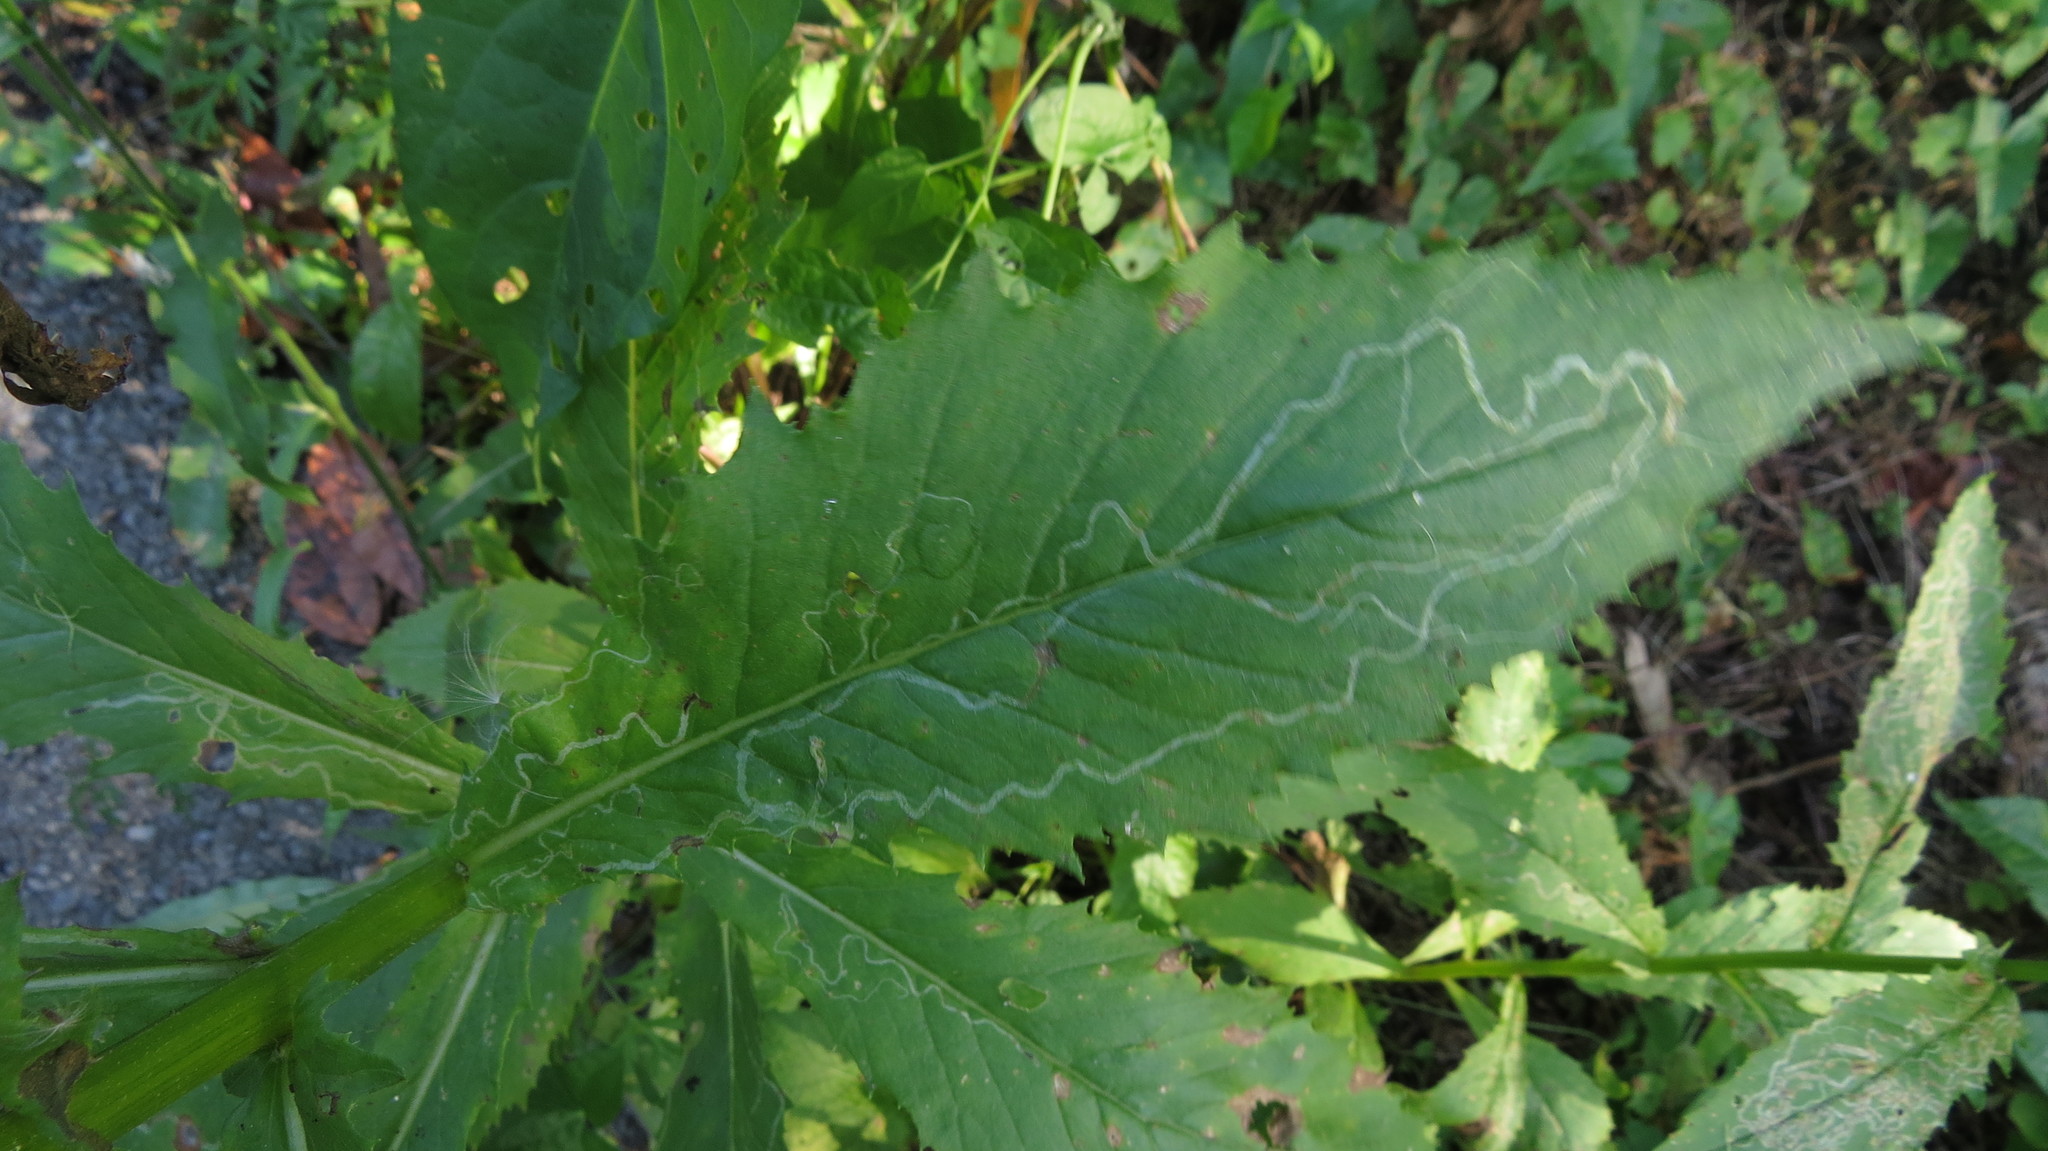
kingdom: Animalia
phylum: Arthropoda
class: Insecta
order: Lepidoptera
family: Gracillariidae
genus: Phyllocnistis
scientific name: Phyllocnistis insignis
